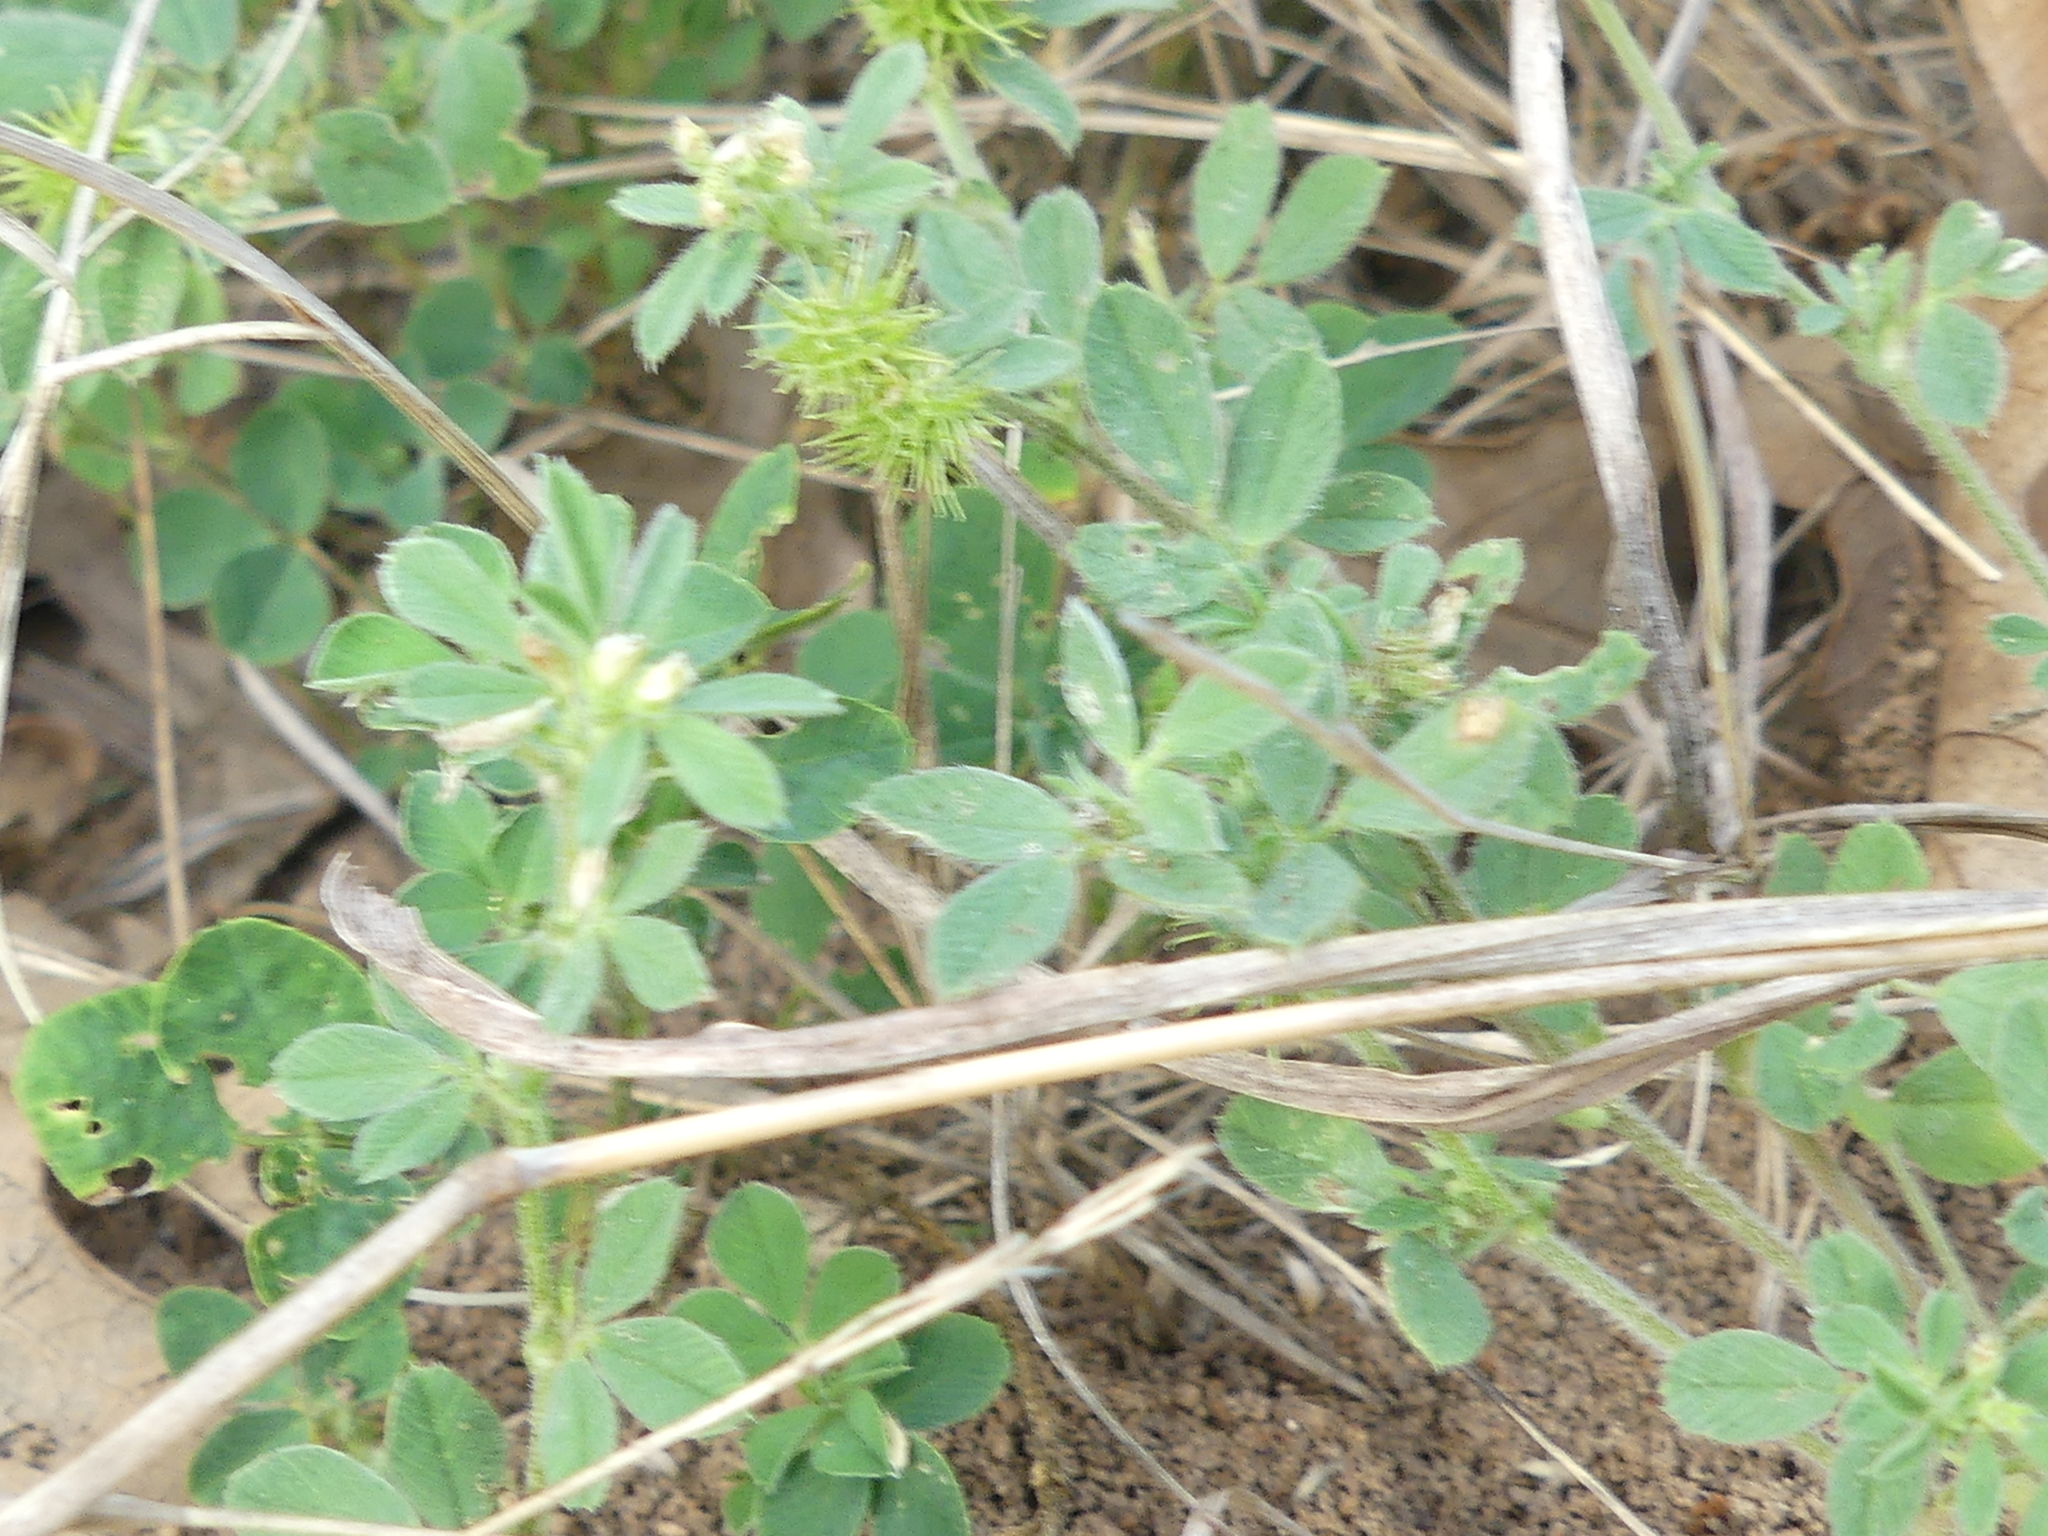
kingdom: Plantae
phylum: Tracheophyta
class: Magnoliopsida
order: Fabales
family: Fabaceae
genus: Medicago
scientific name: Medicago minima
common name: Little bur-clover
